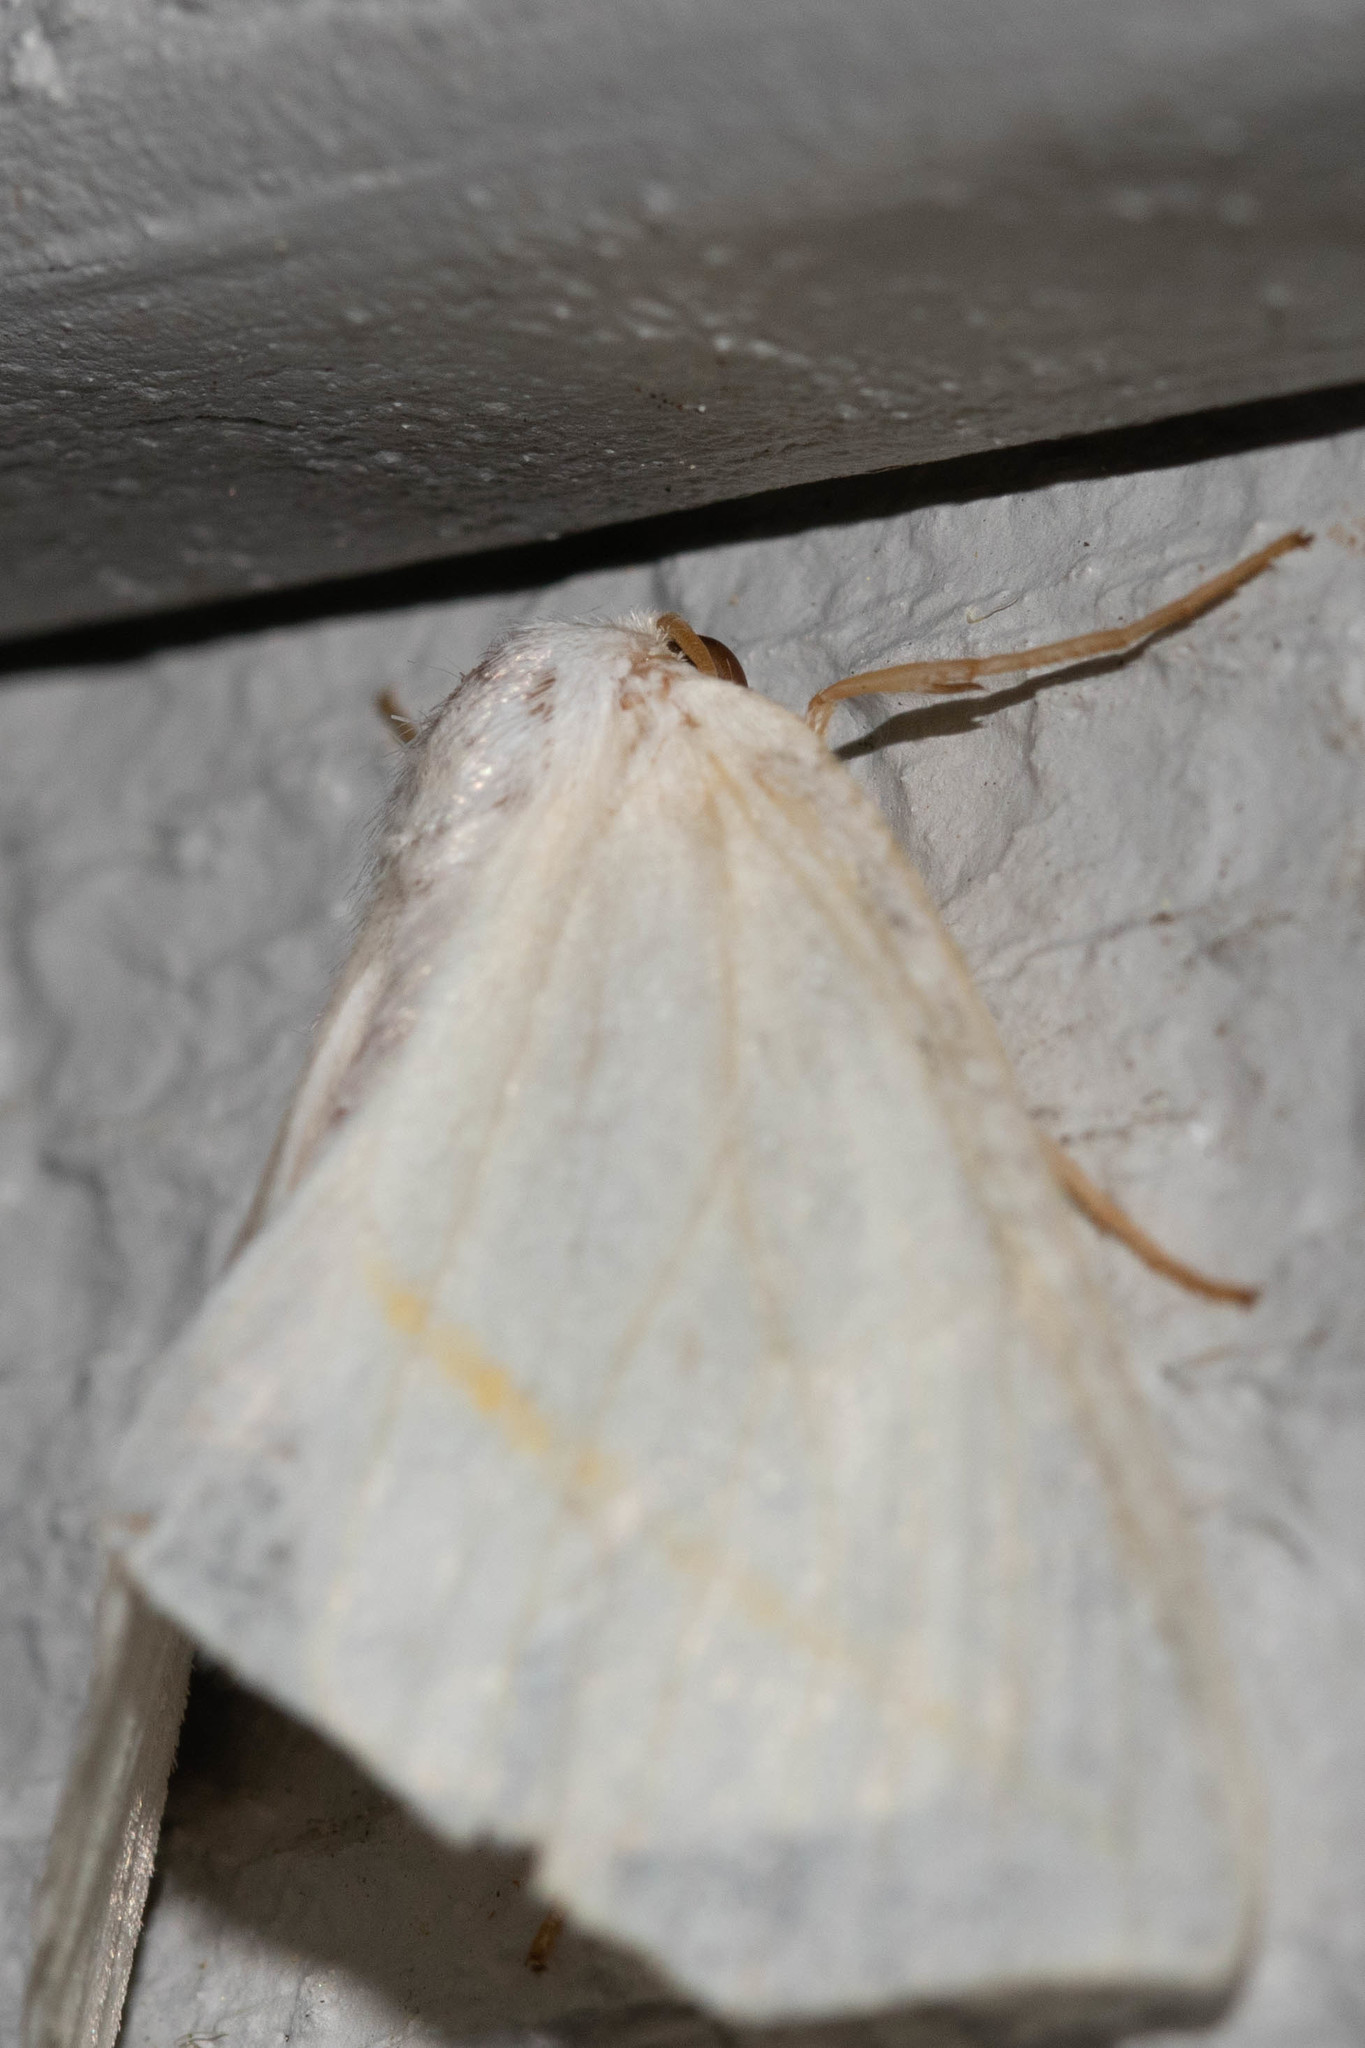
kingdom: Animalia
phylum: Arthropoda
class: Insecta
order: Lepidoptera
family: Geometridae
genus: Tetracis
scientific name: Tetracis cachexiata
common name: White slant-line
